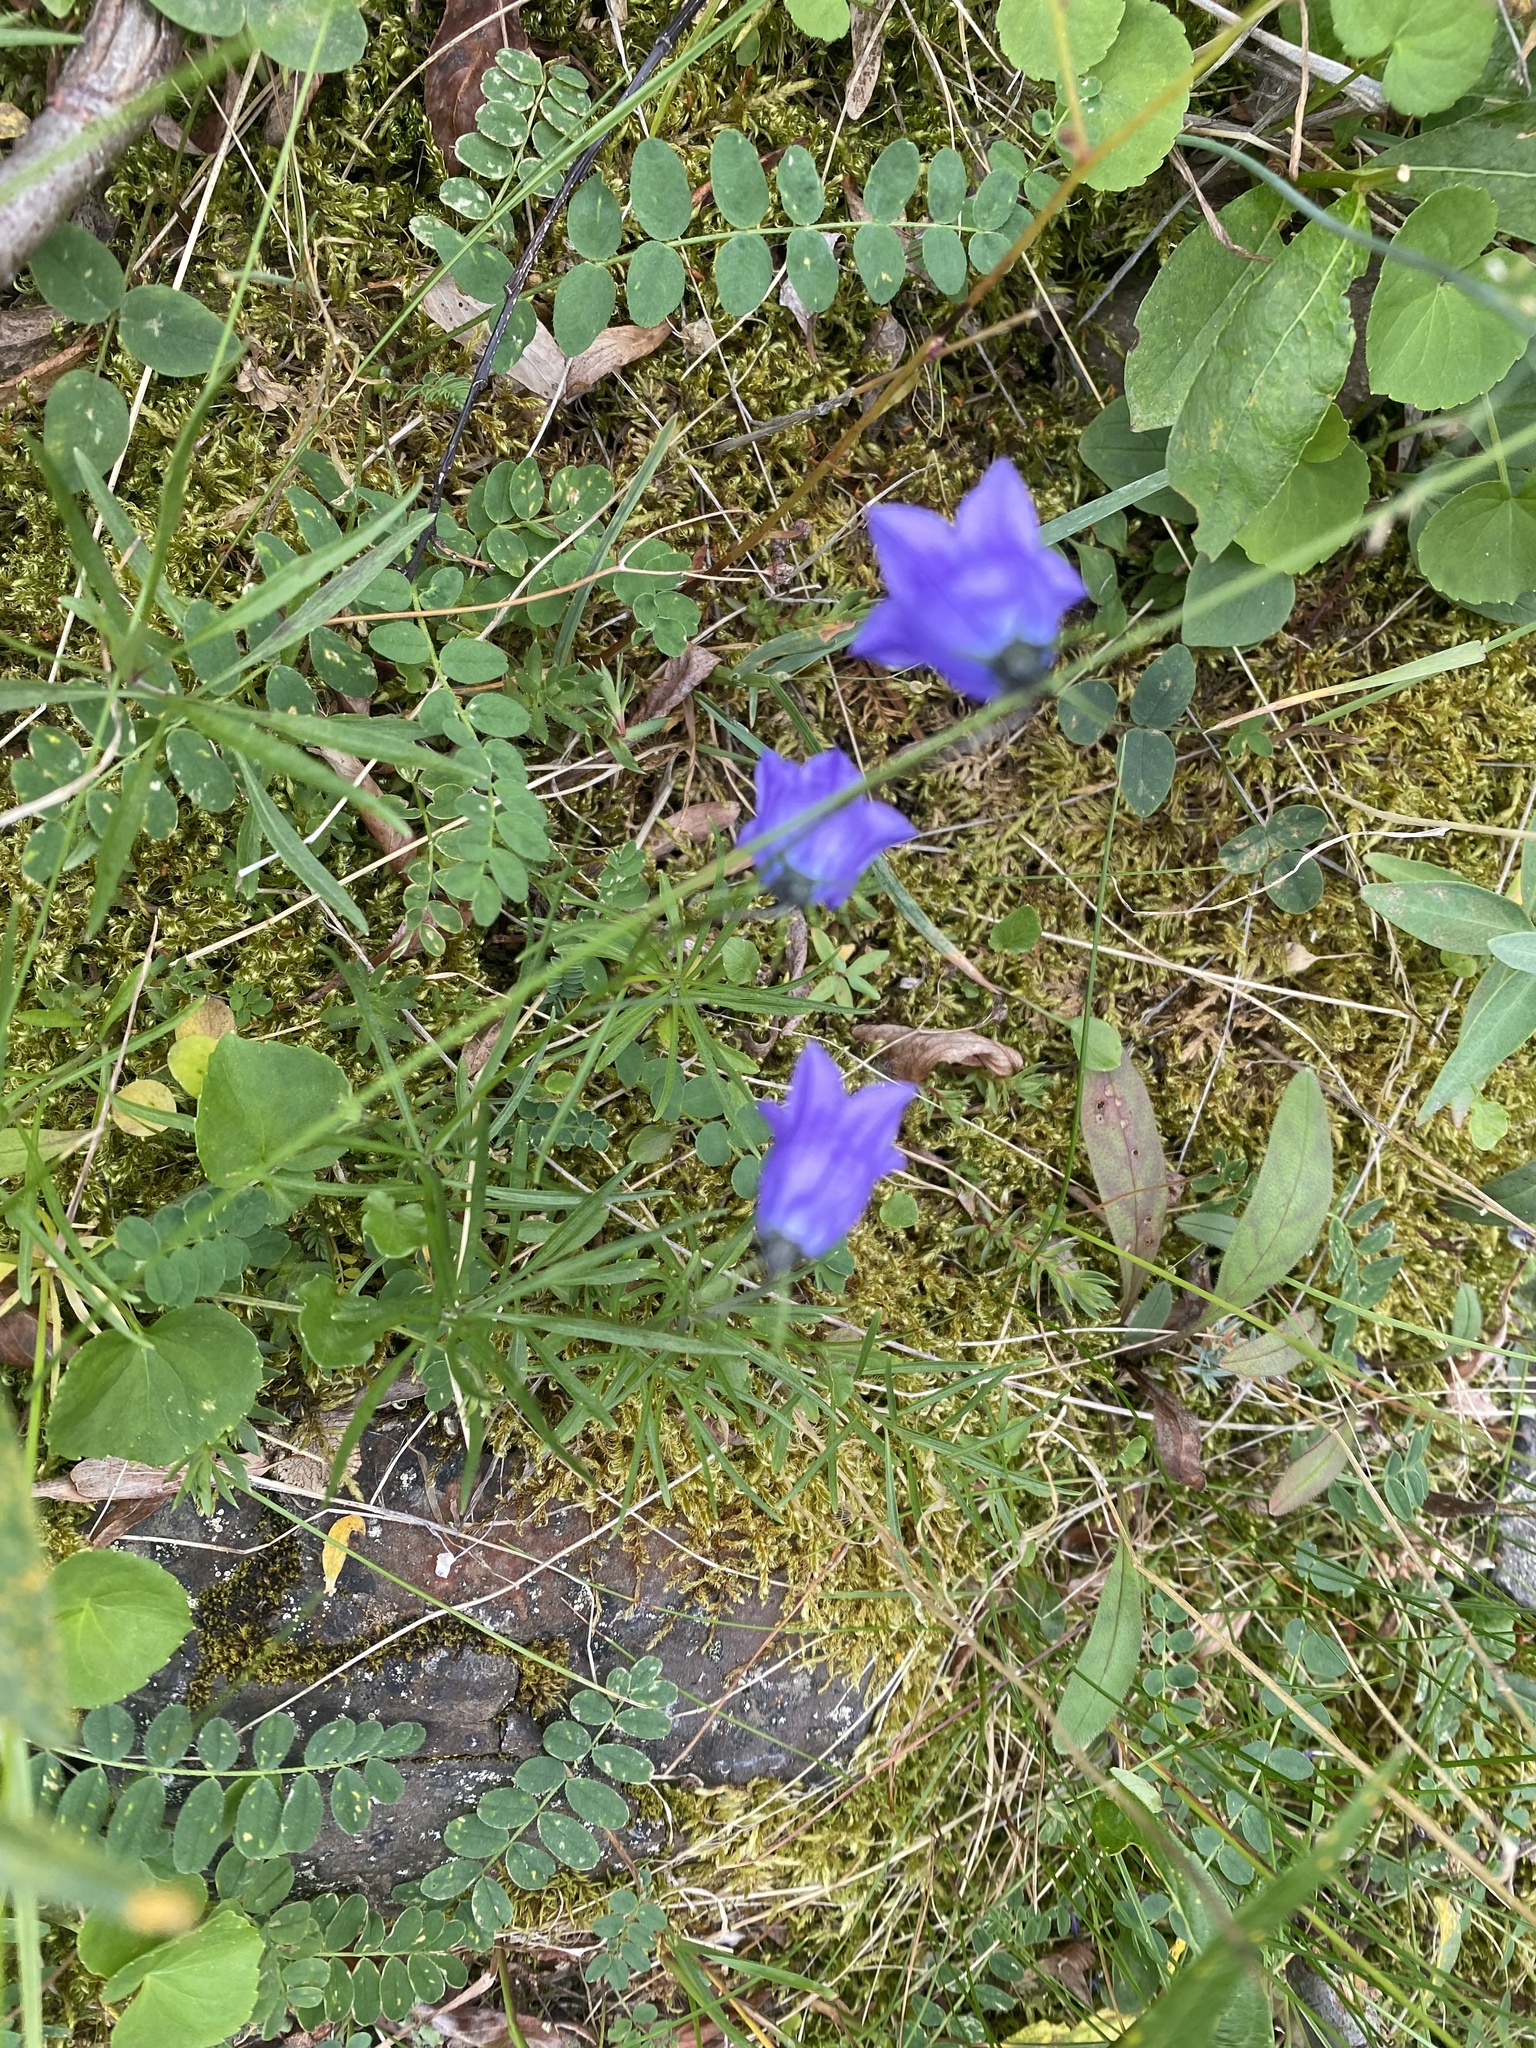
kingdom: Plantae
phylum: Tracheophyta
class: Magnoliopsida
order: Asterales
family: Campanulaceae
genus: Campanula
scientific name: Campanula rotundifolia
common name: Harebell
